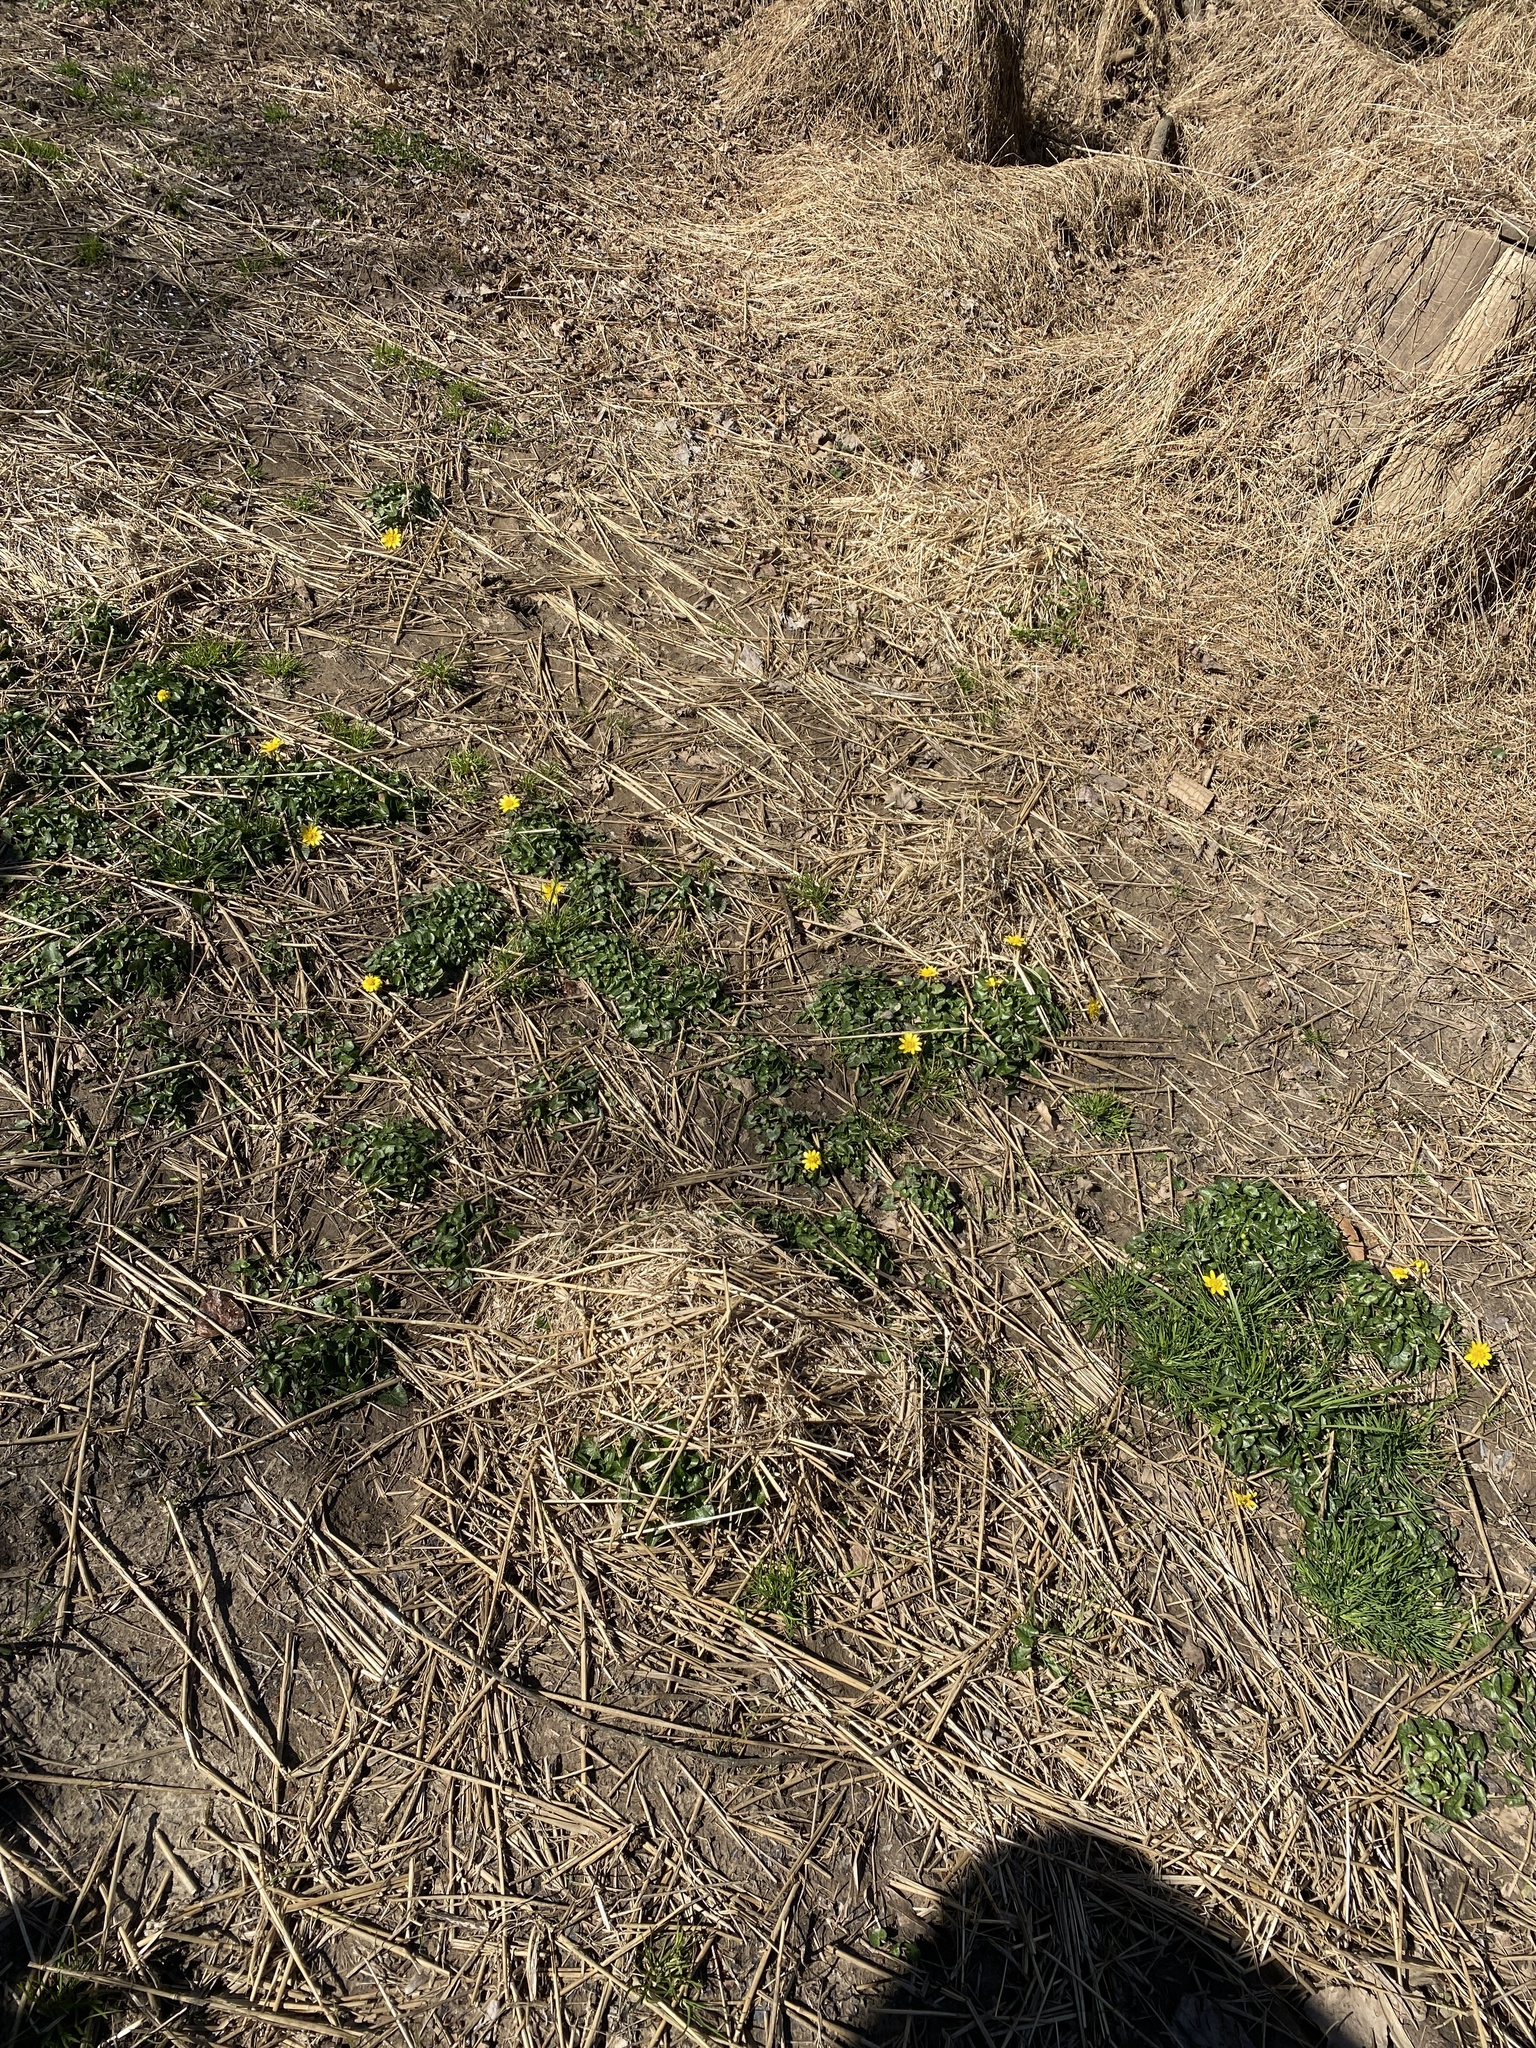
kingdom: Plantae
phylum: Tracheophyta
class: Magnoliopsida
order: Ranunculales
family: Ranunculaceae
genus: Ficaria
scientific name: Ficaria verna
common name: Lesser celandine
